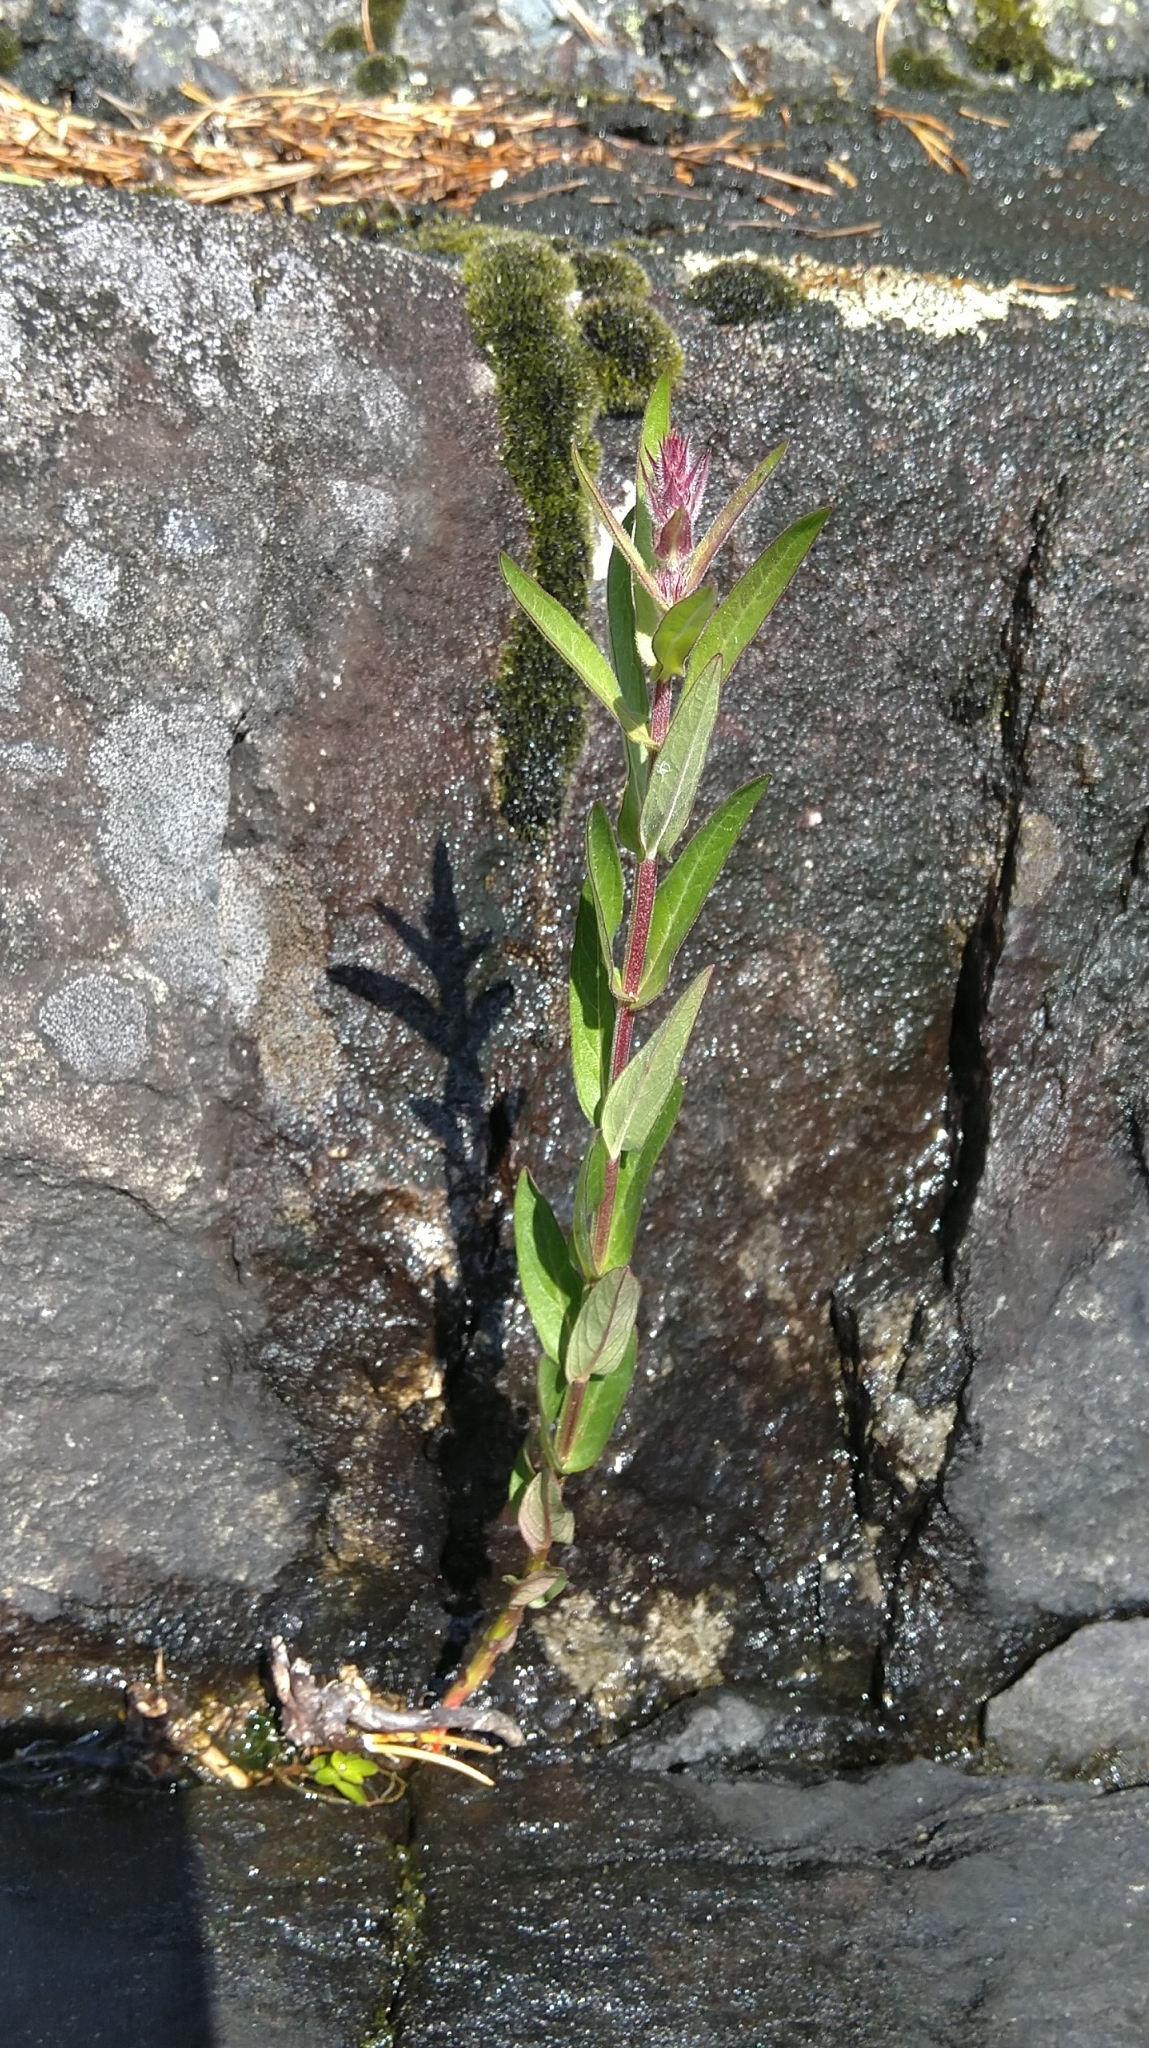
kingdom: Plantae
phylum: Tracheophyta
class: Magnoliopsida
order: Myrtales
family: Lythraceae
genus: Lythrum
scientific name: Lythrum salicaria
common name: Purple loosestrife
